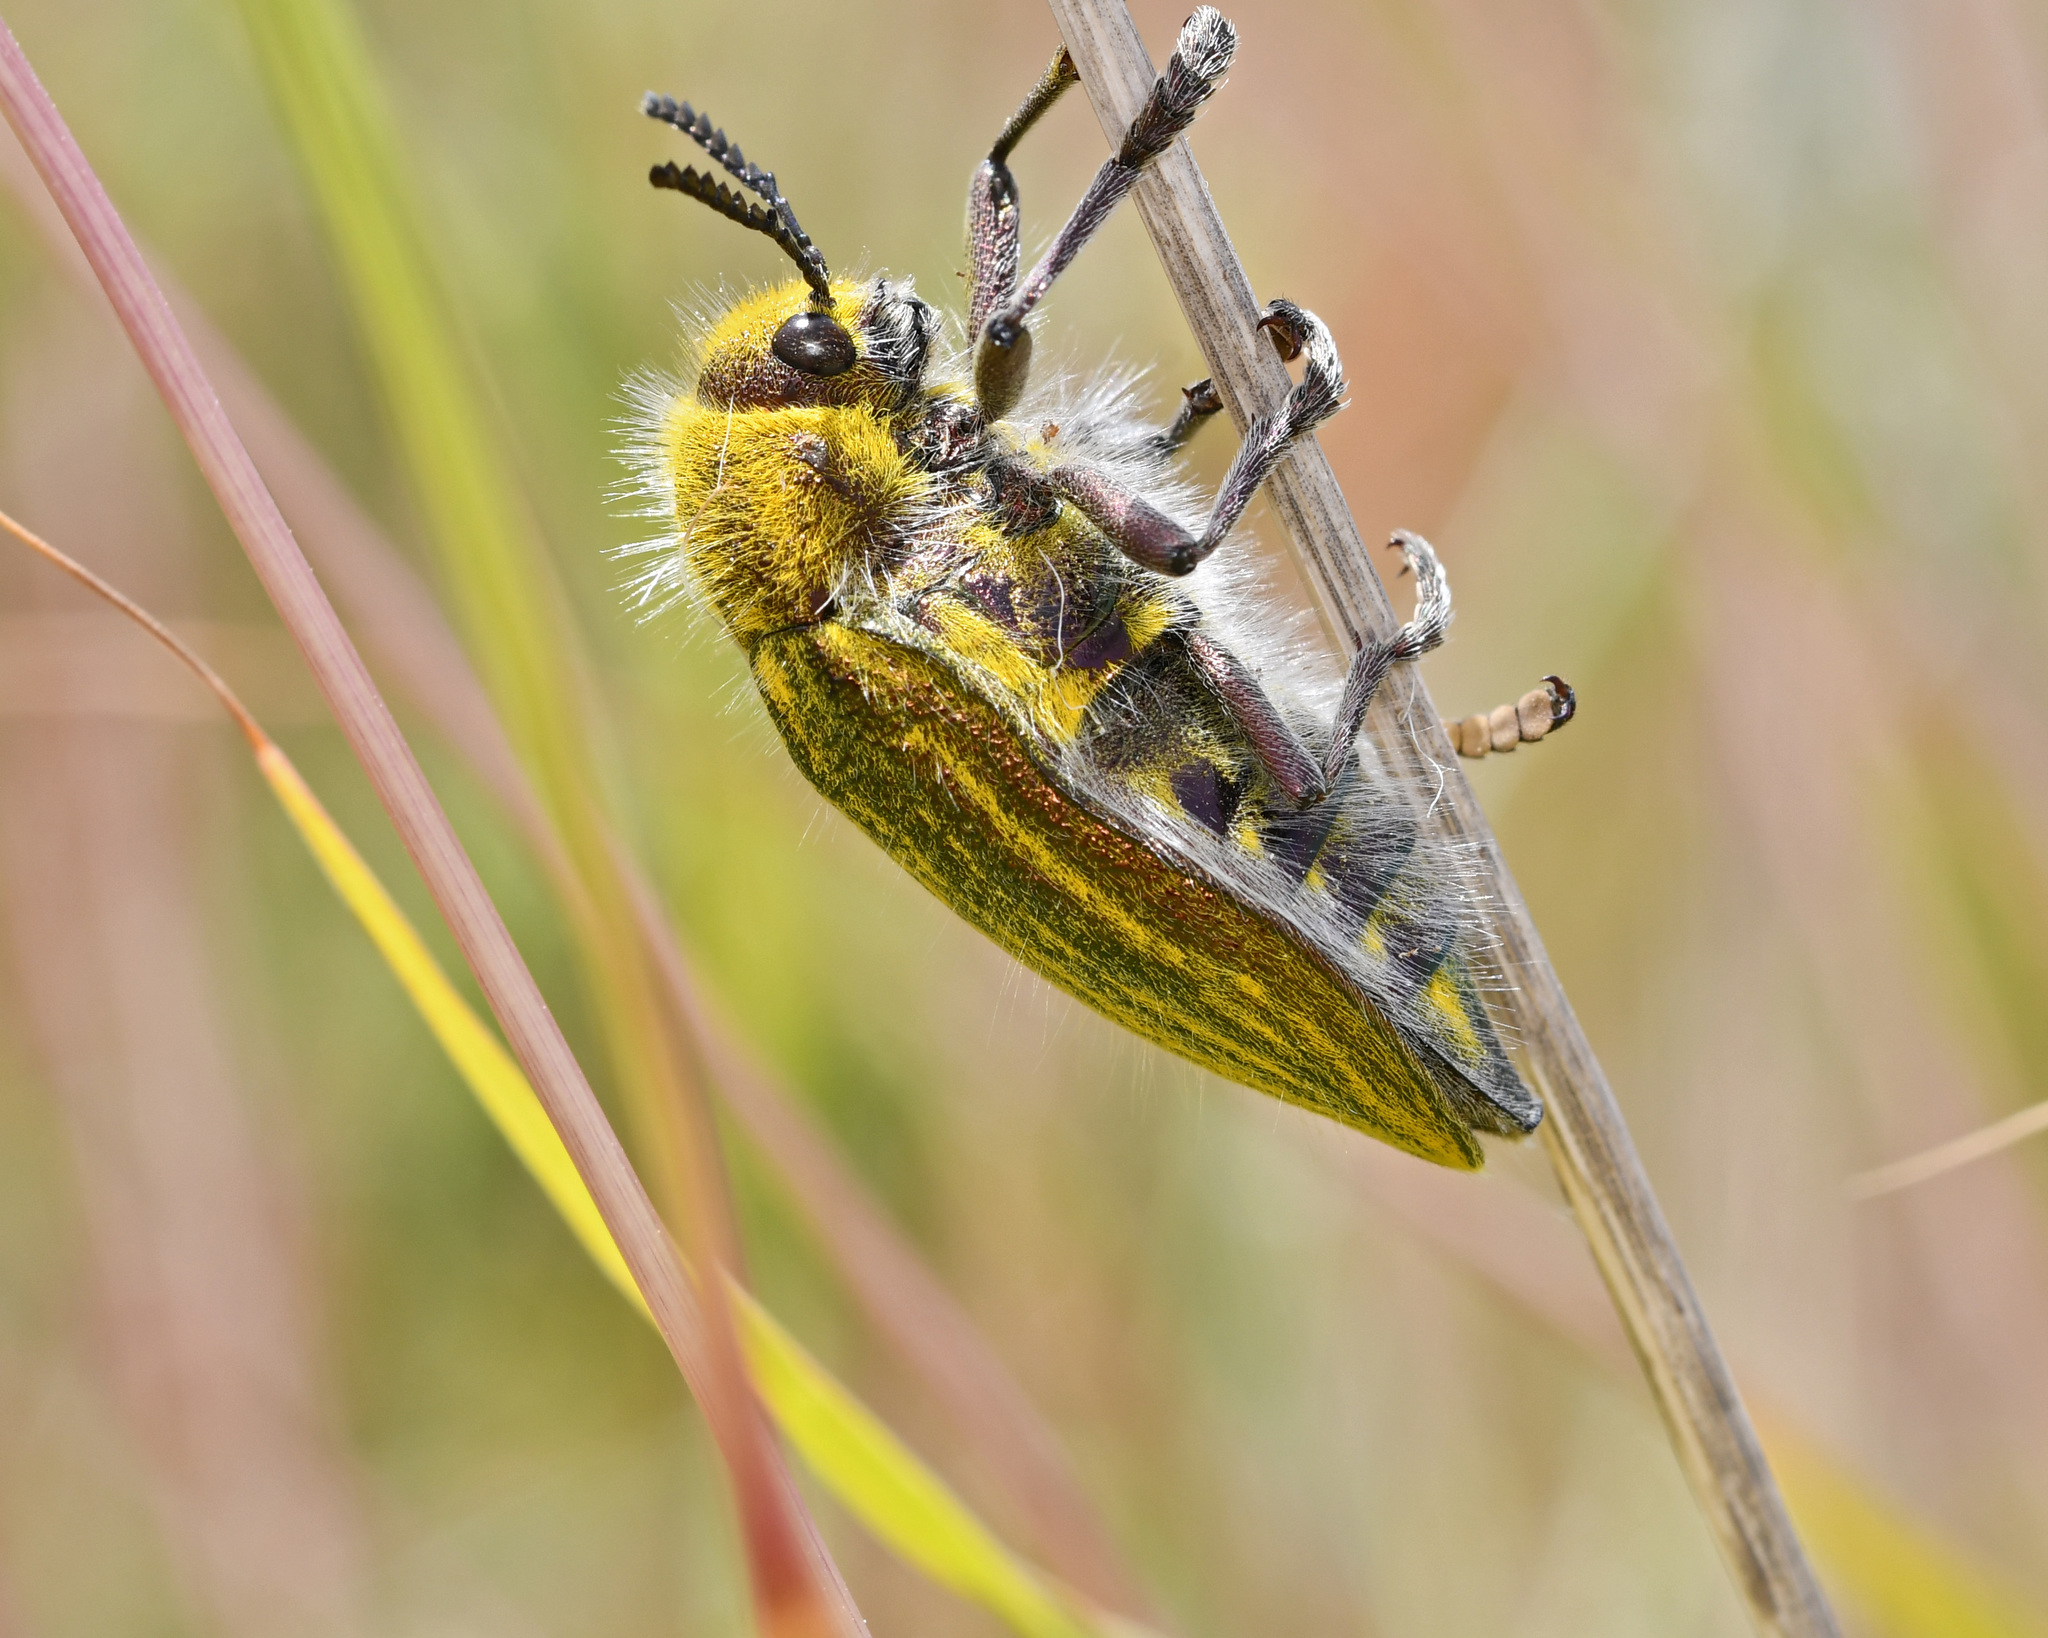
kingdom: Animalia
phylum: Arthropoda
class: Insecta
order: Coleoptera
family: Buprestidae
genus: Julodis
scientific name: Julodis ehrenbergii
